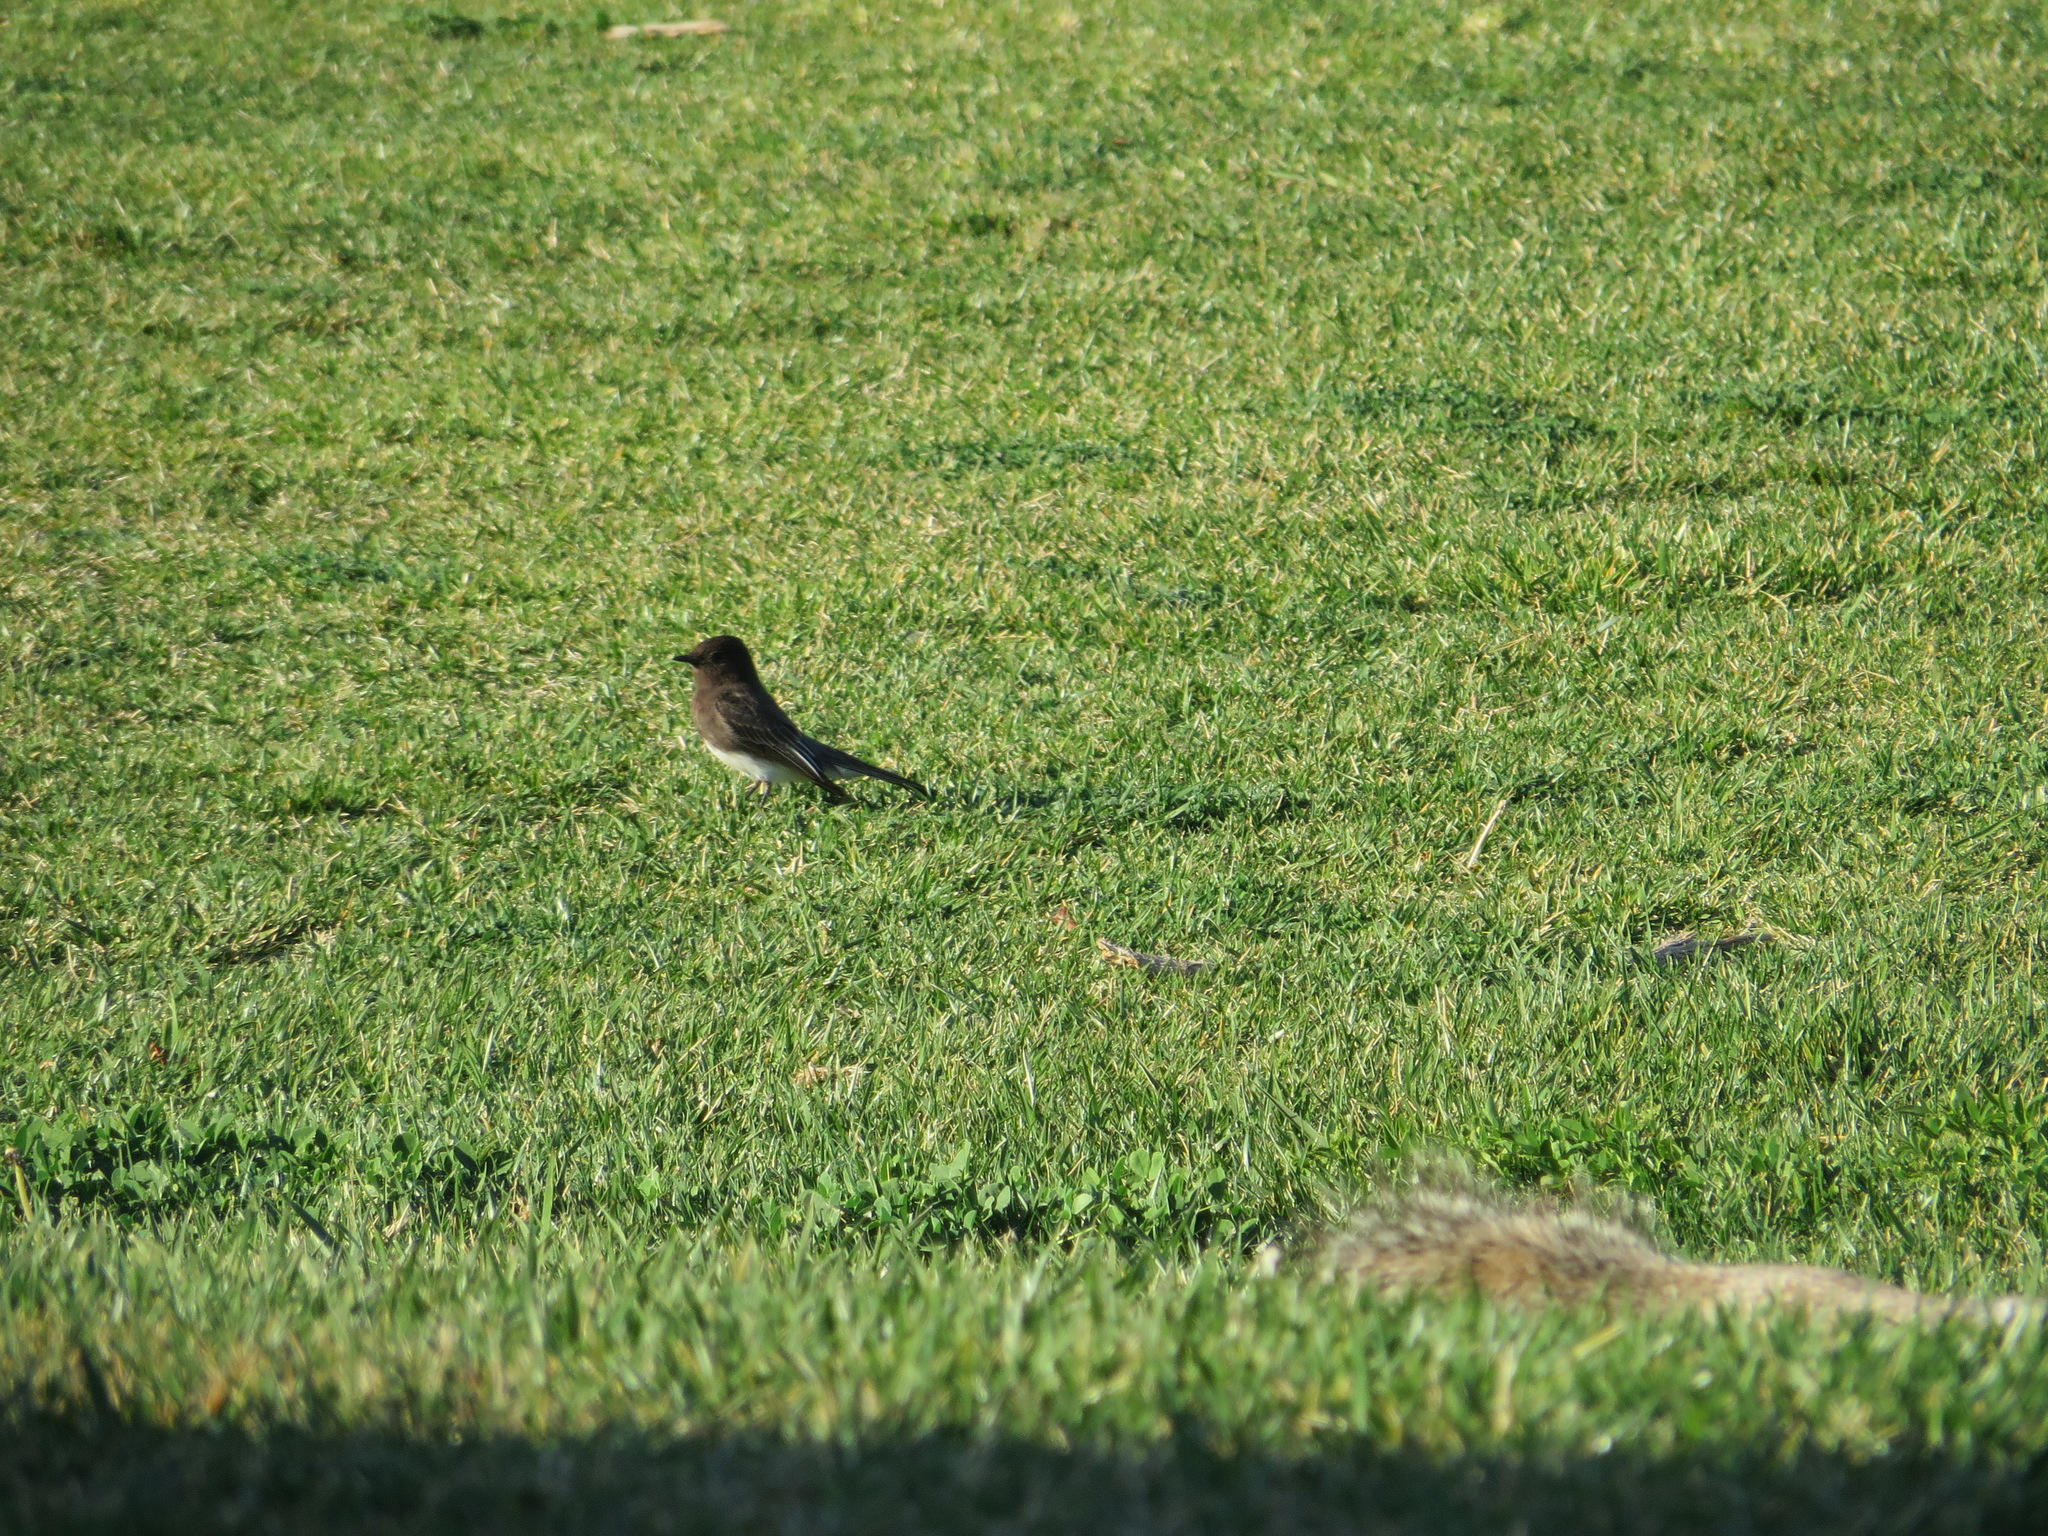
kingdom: Animalia
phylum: Chordata
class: Aves
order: Passeriformes
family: Tyrannidae
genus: Sayornis
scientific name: Sayornis nigricans
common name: Black phoebe
